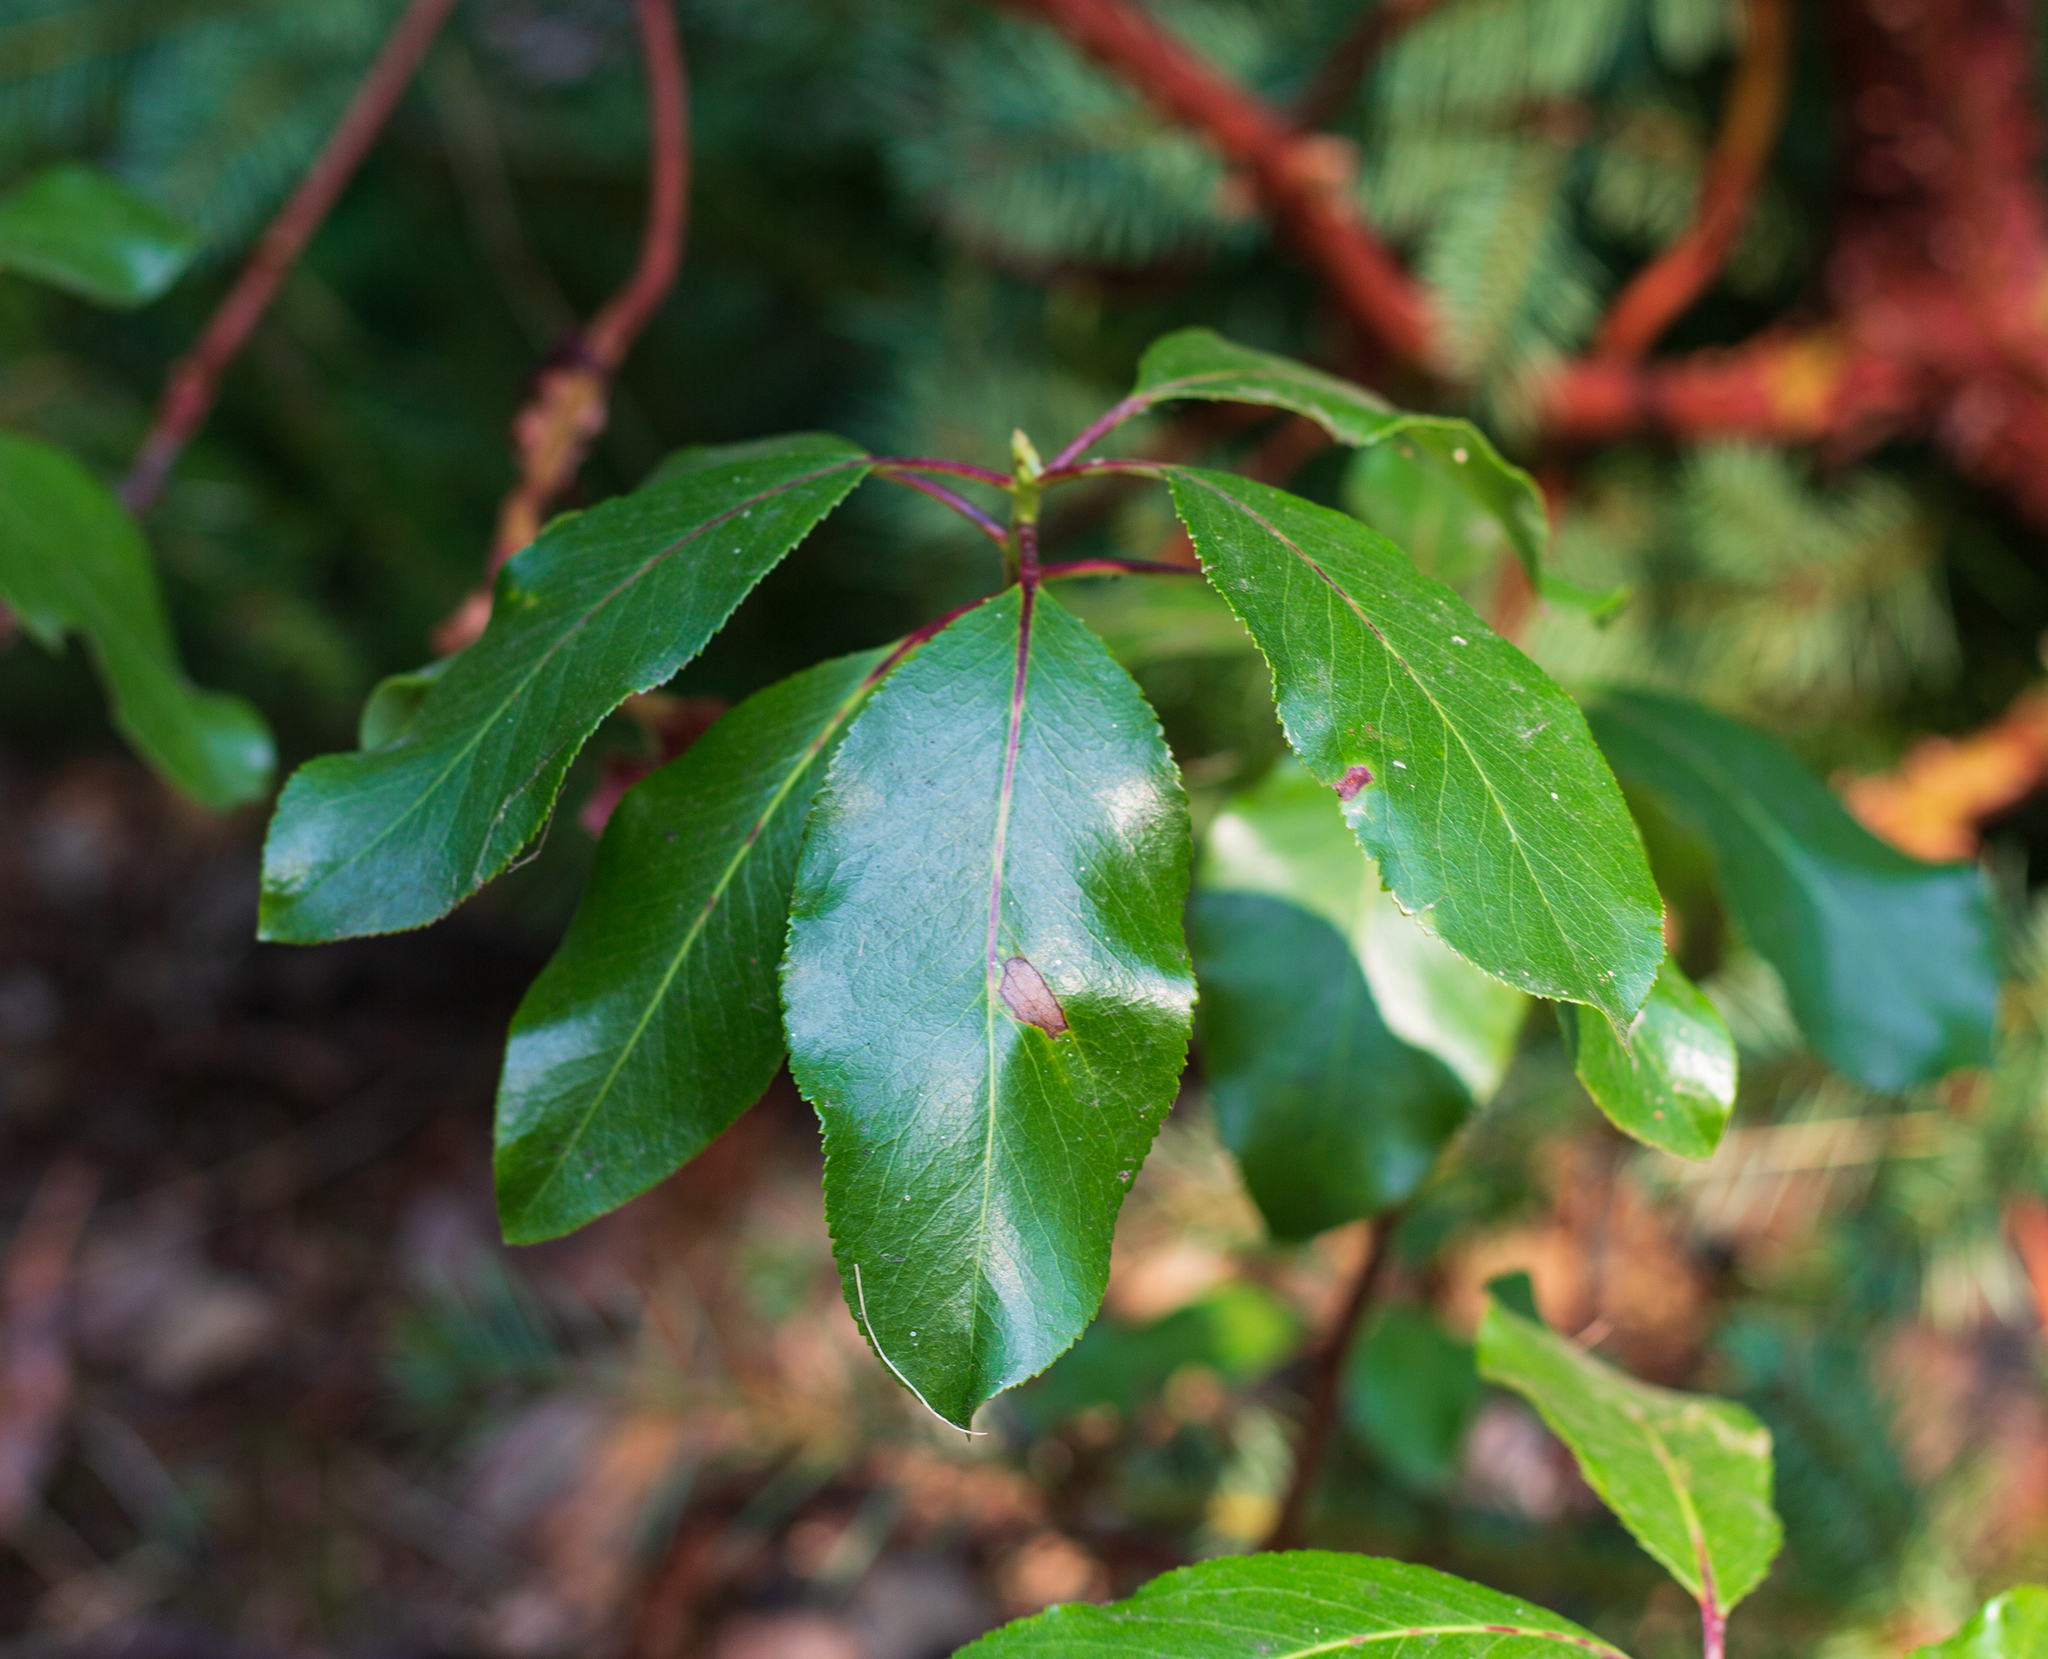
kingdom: Plantae
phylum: Tracheophyta
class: Magnoliopsida
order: Ericales
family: Ericaceae
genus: Arbutus
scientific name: Arbutus menziesii
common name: Pacific madrone
